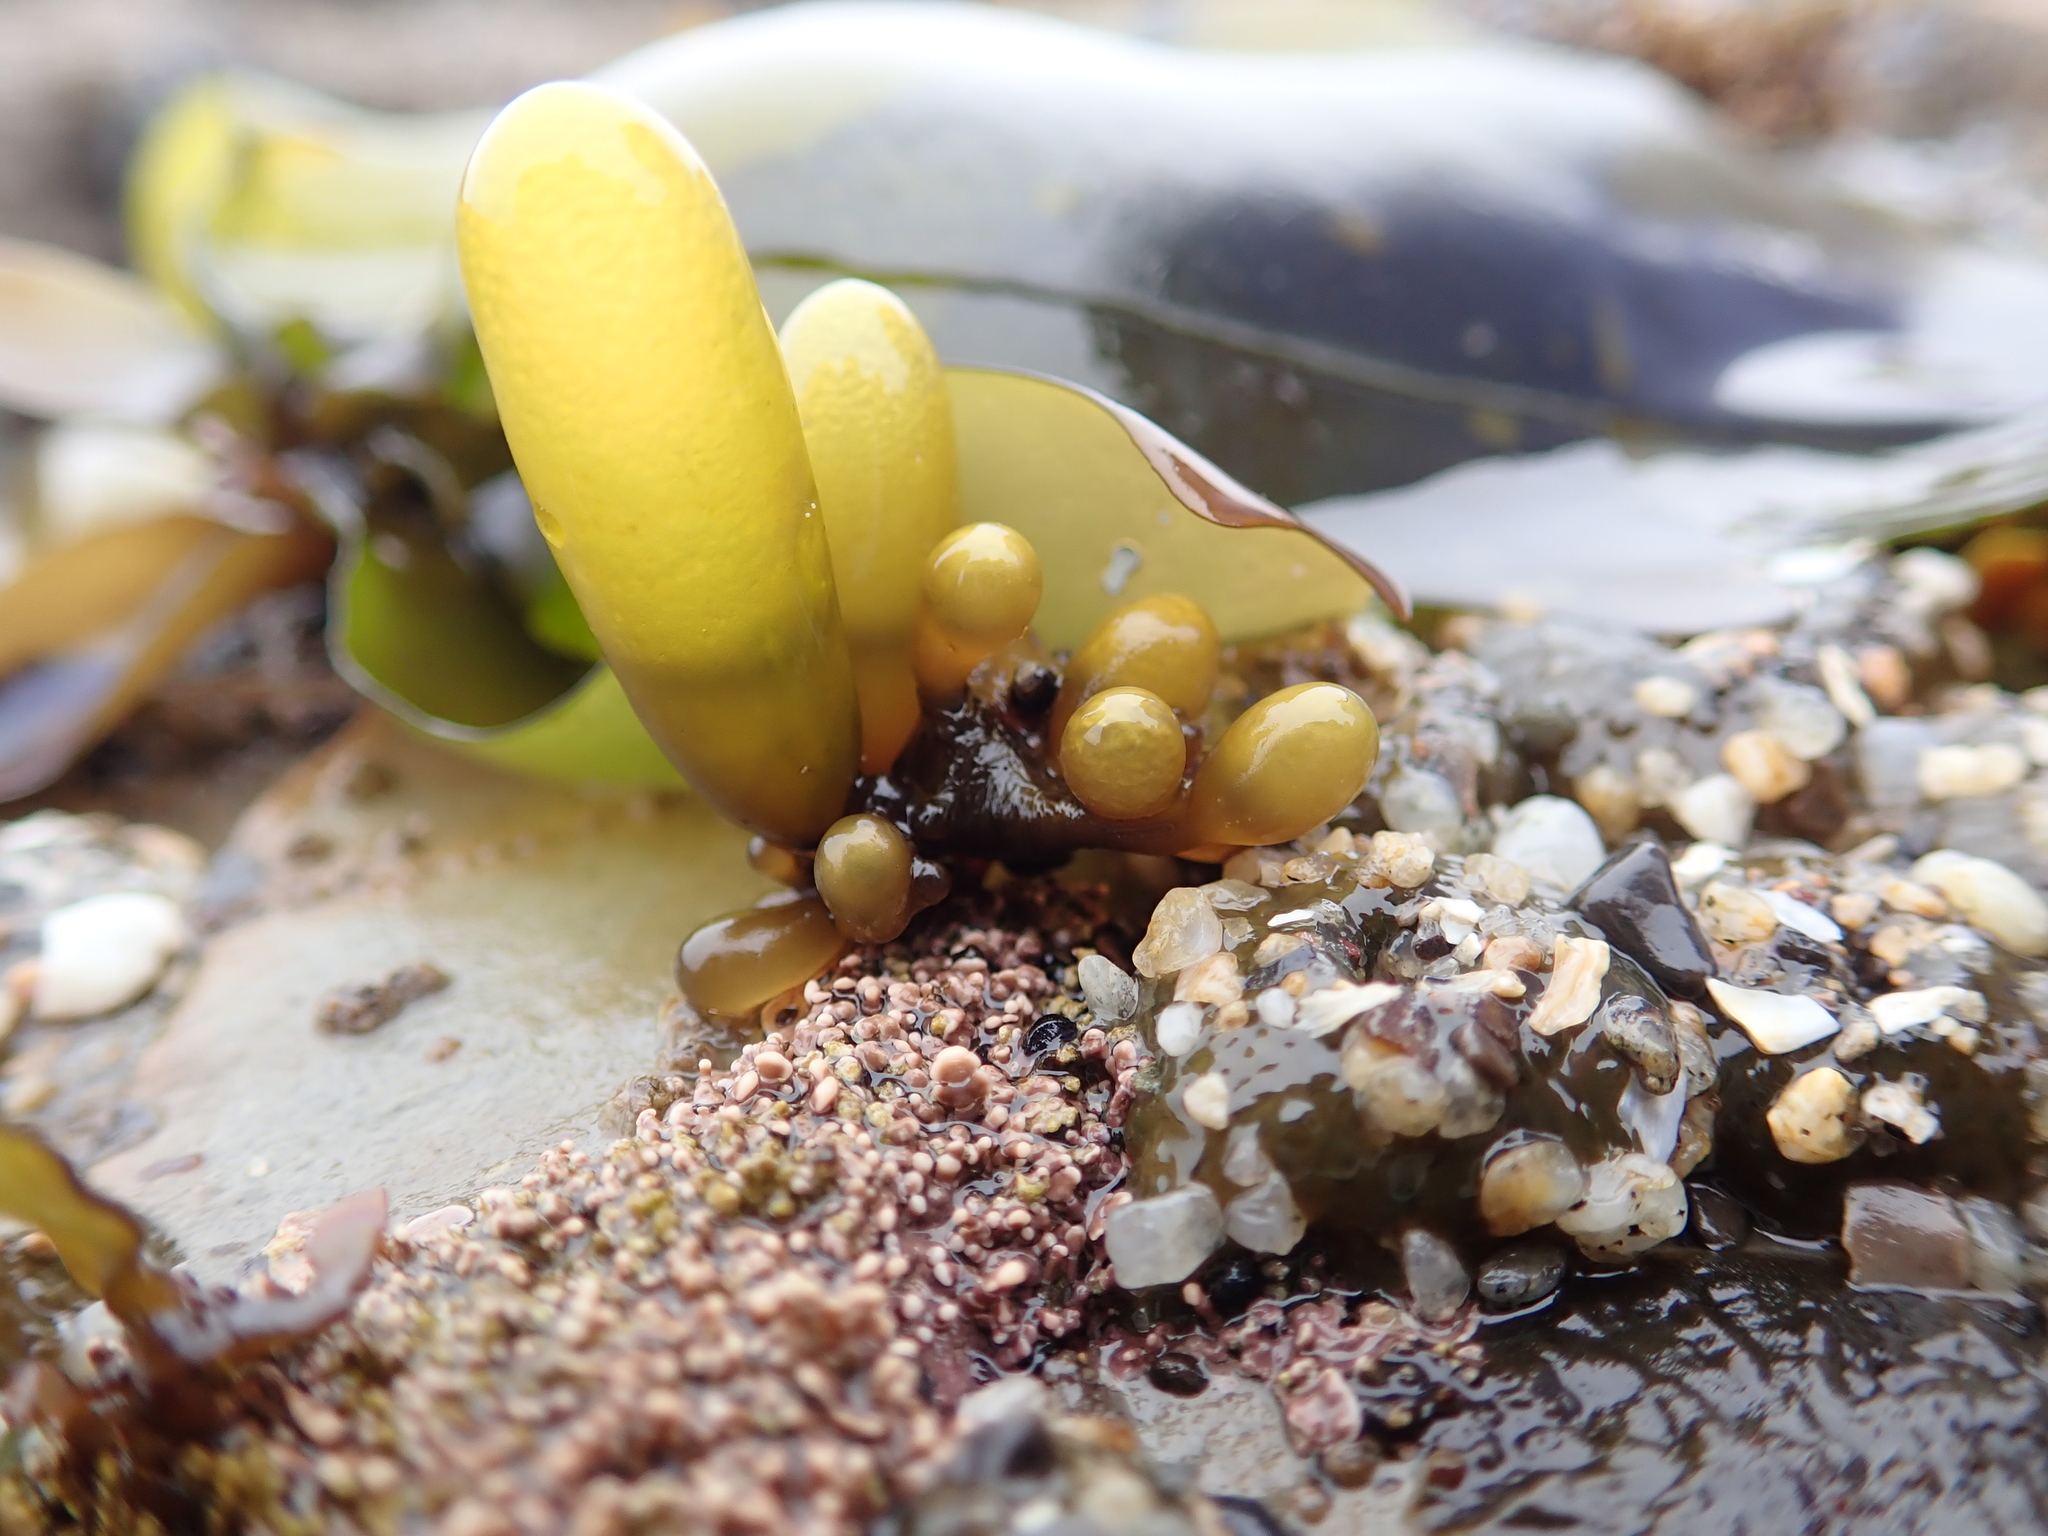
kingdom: Plantae
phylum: Rhodophyta
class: Florideophyceae
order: Palmariales
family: Palmariaceae
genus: Halosaccion
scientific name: Halosaccion glandiforme
